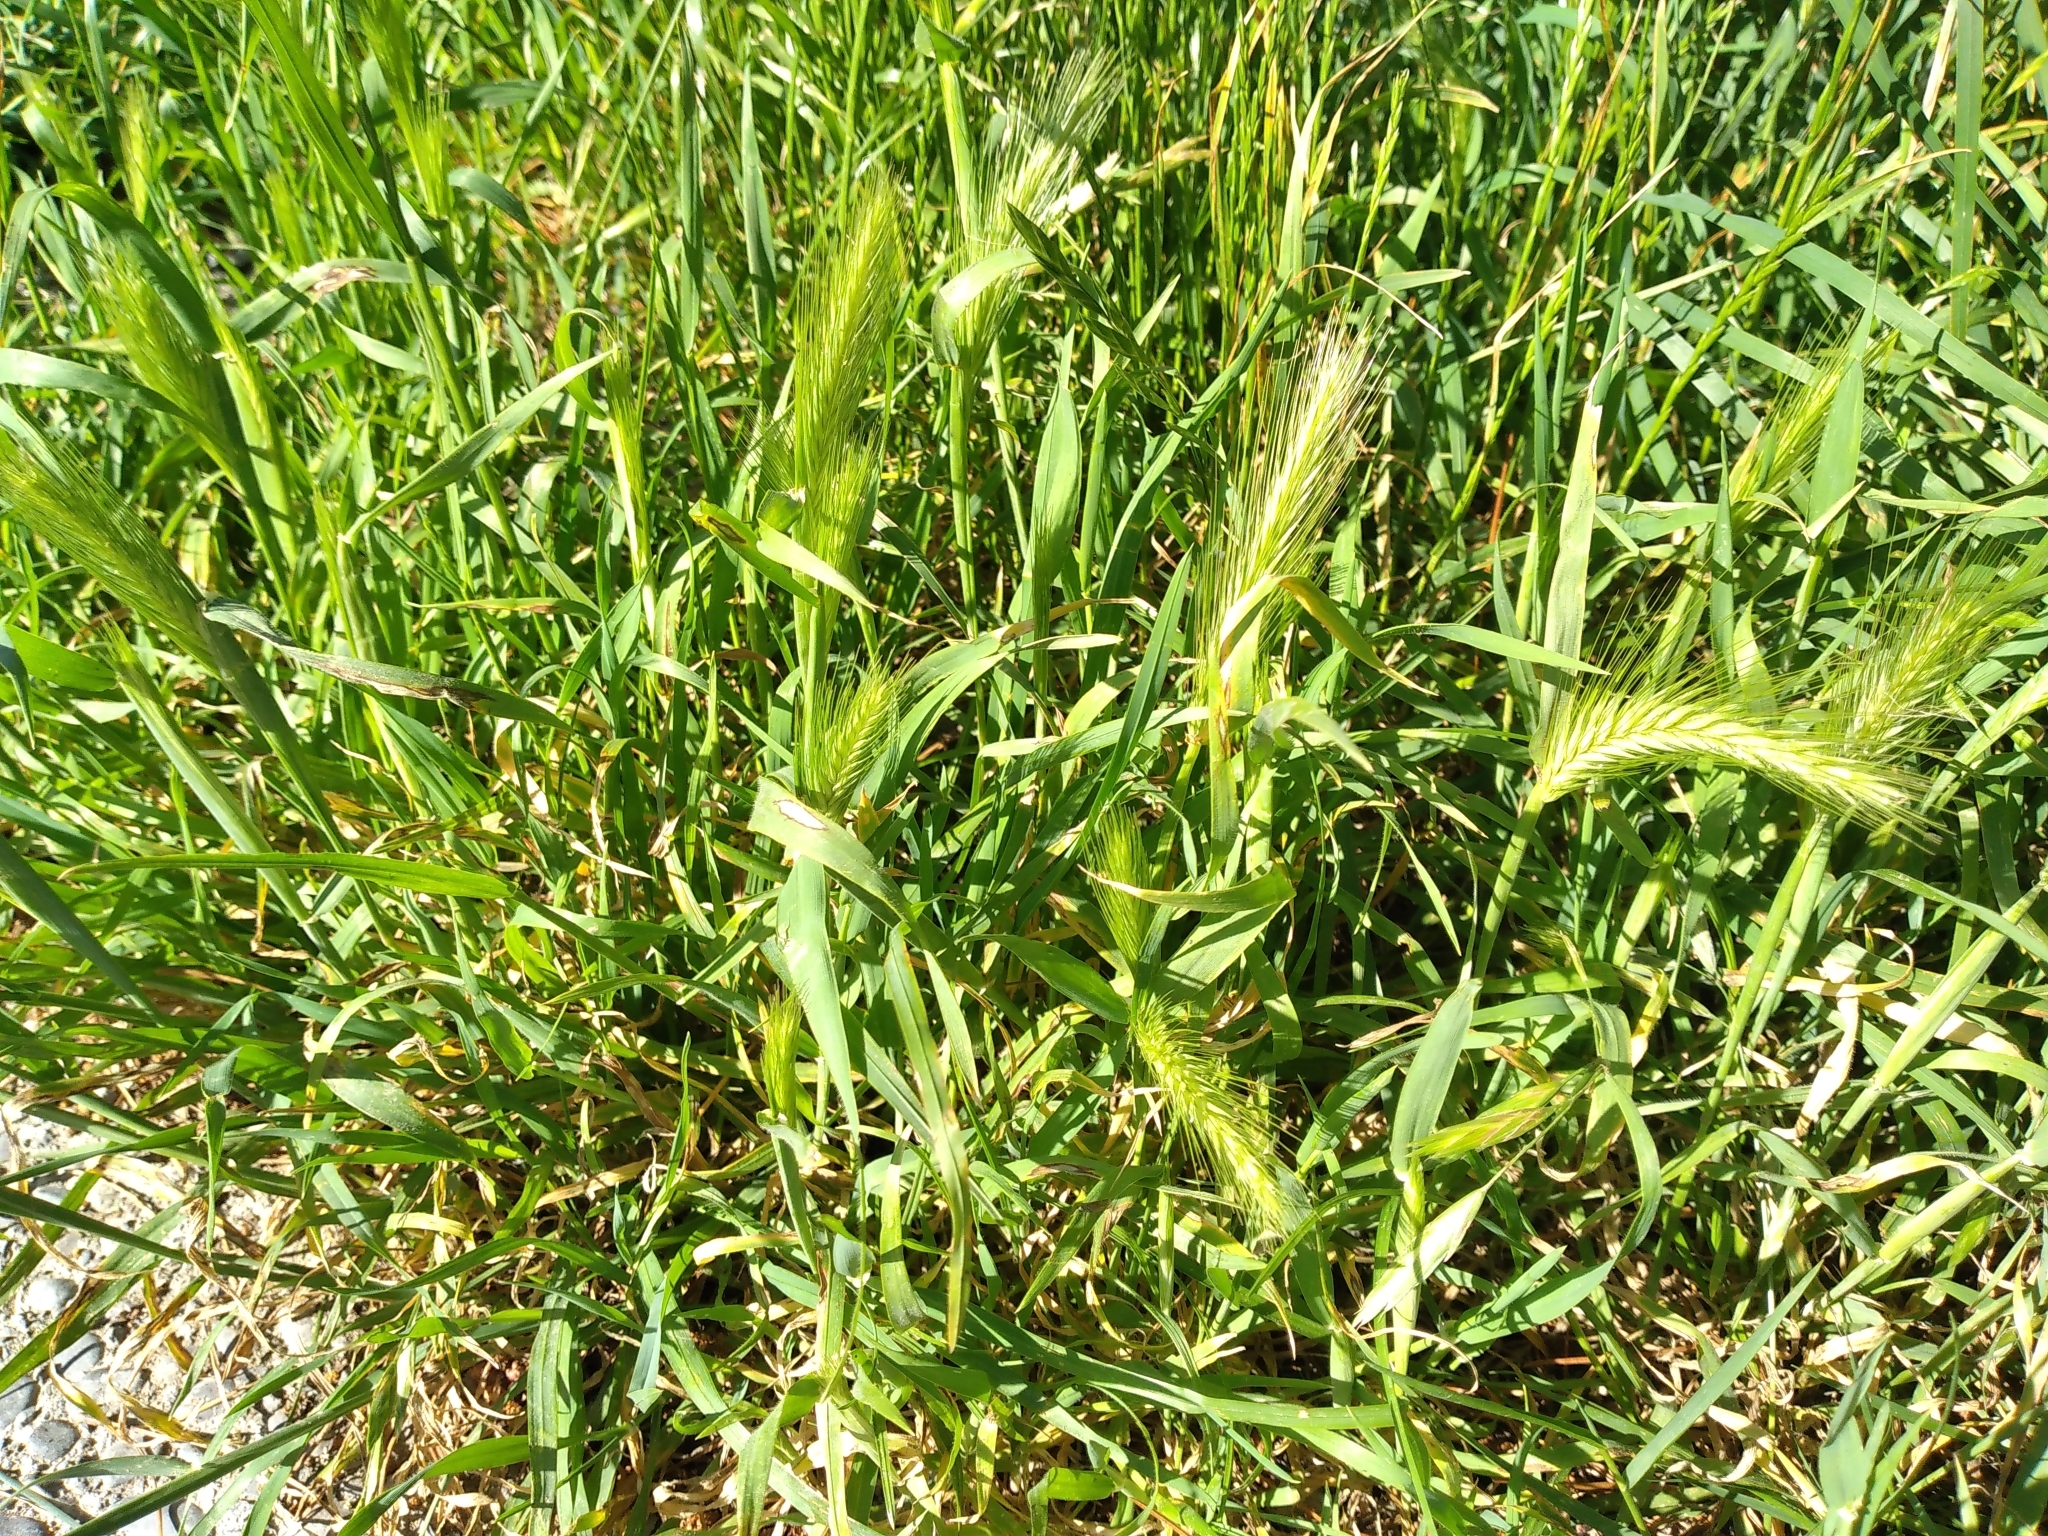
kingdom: Plantae
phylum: Tracheophyta
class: Liliopsida
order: Poales
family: Poaceae
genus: Hordeum
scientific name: Hordeum murinum
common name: Wall barley
